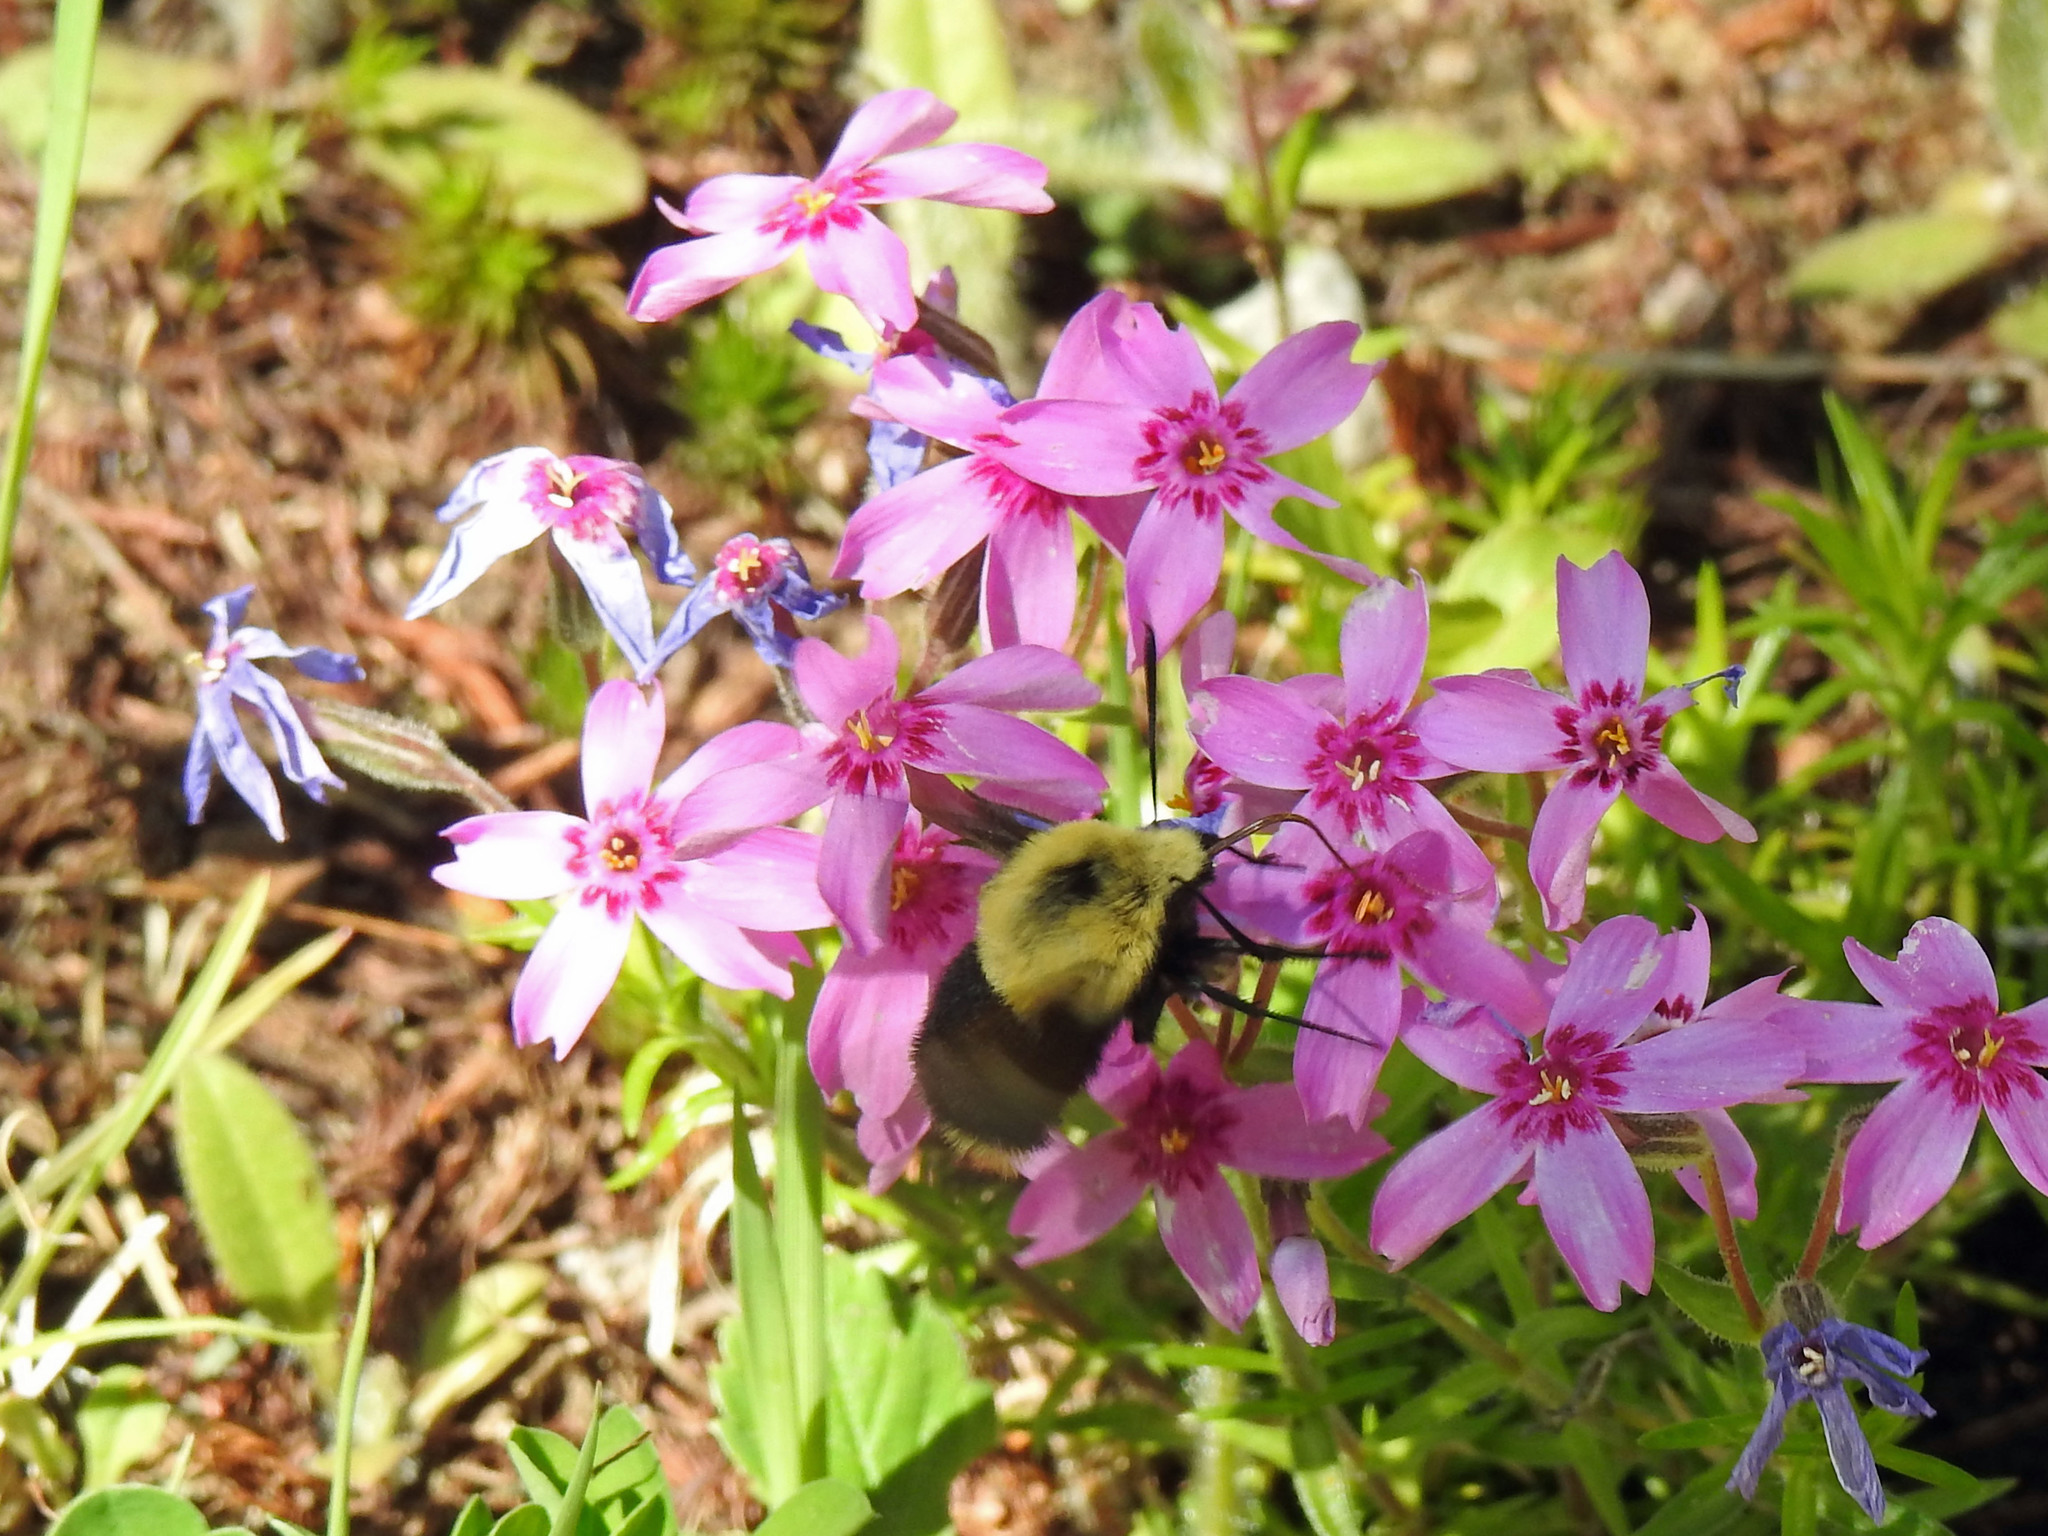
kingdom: Animalia
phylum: Arthropoda
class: Insecta
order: Lepidoptera
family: Sphingidae
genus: Proserpinus
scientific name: Proserpinus flavofasciata
